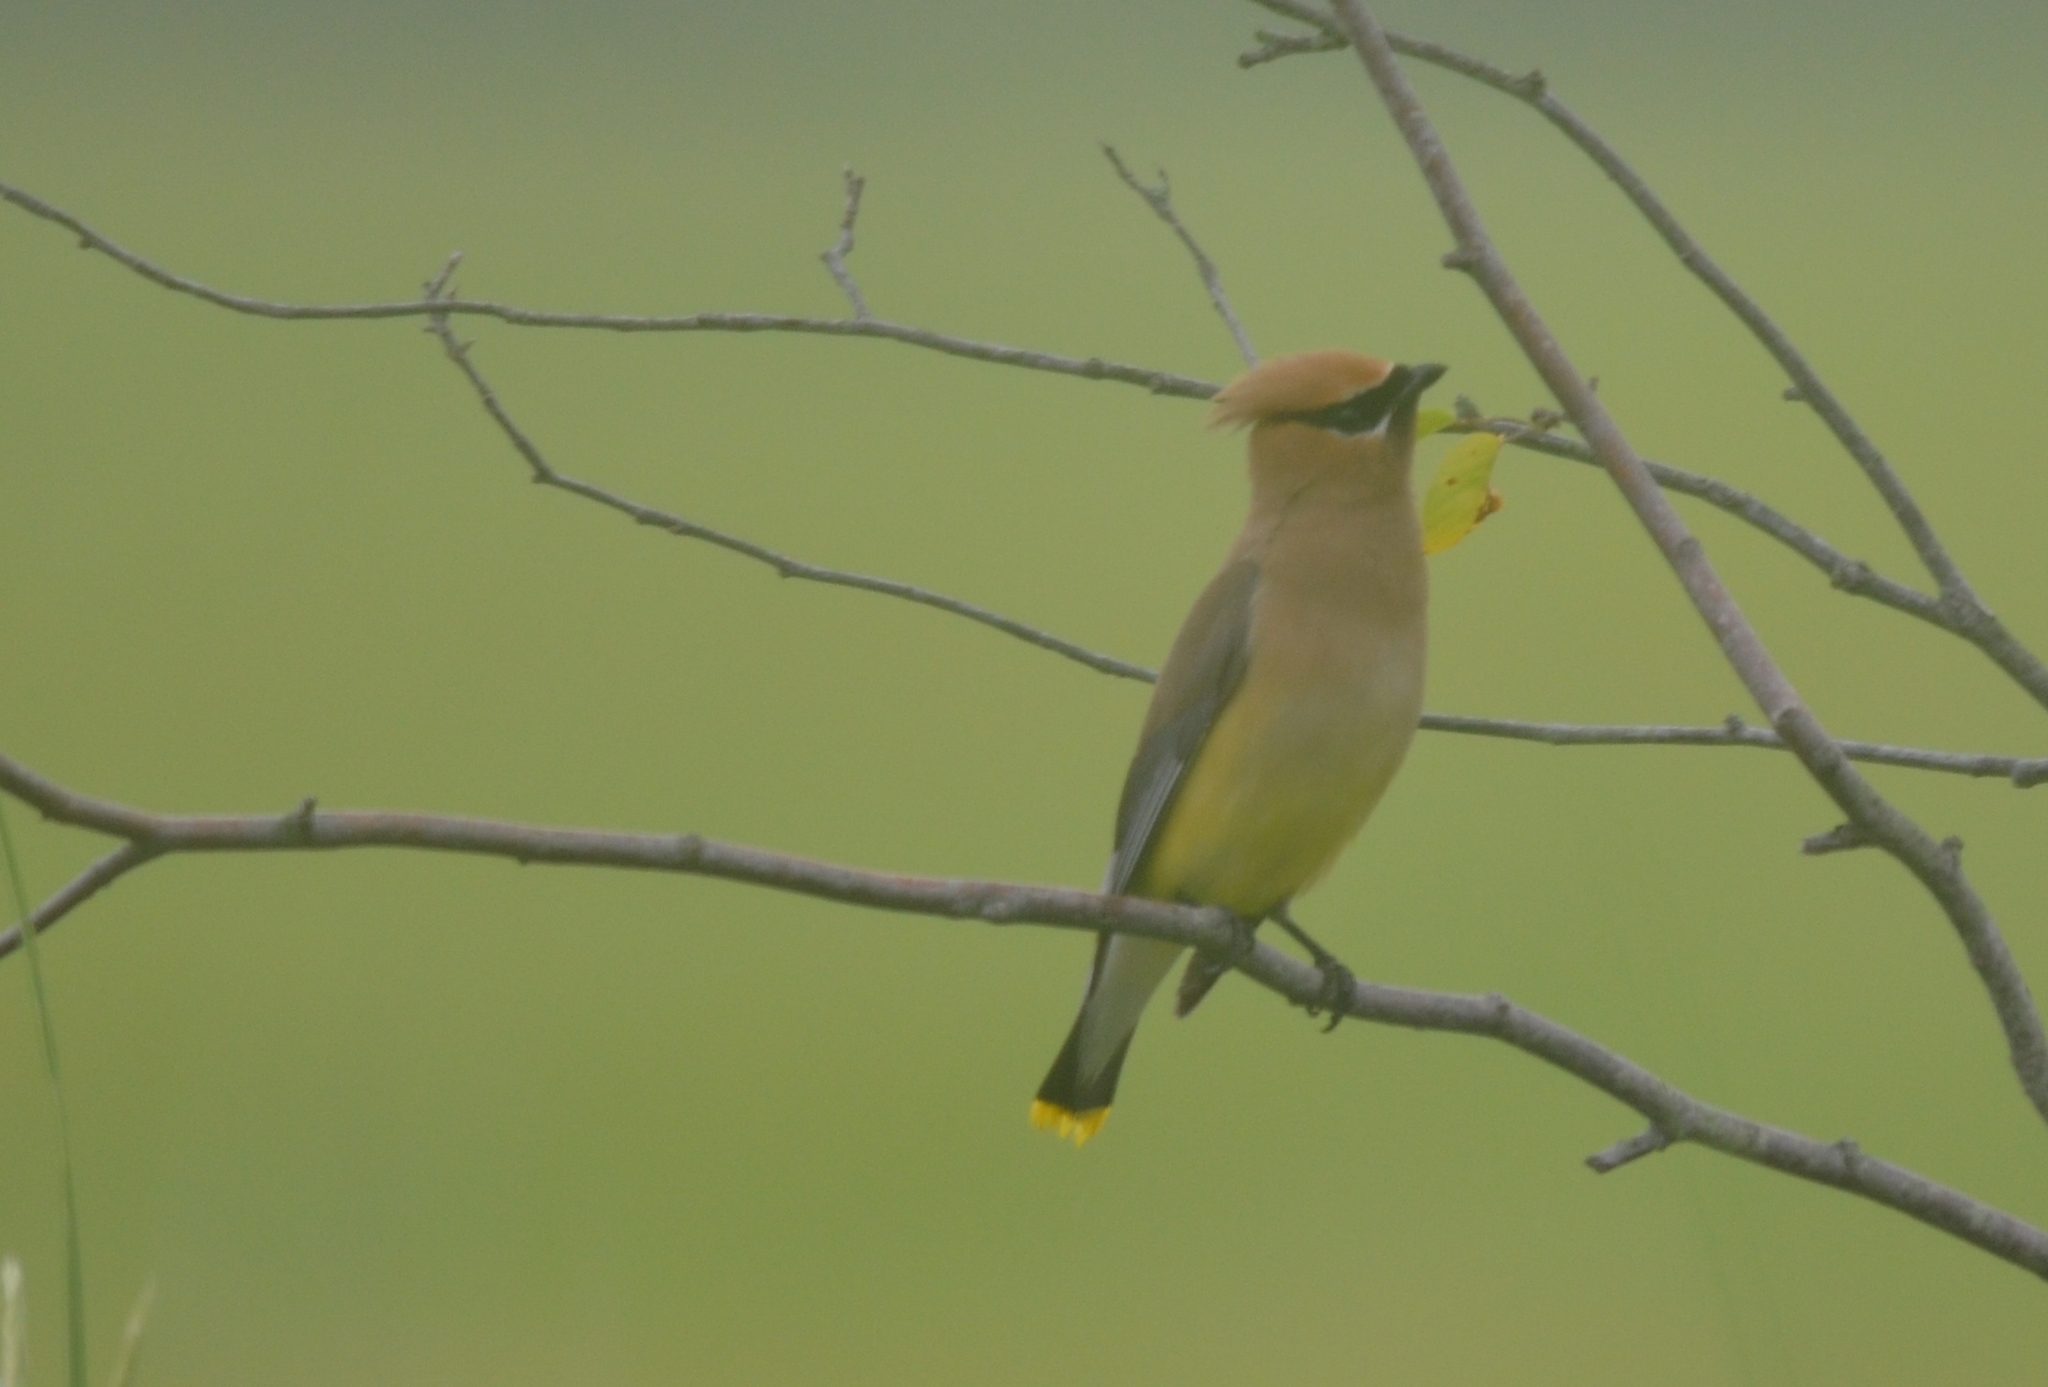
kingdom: Animalia
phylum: Chordata
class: Aves
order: Passeriformes
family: Bombycillidae
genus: Bombycilla
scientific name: Bombycilla cedrorum
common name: Cedar waxwing
